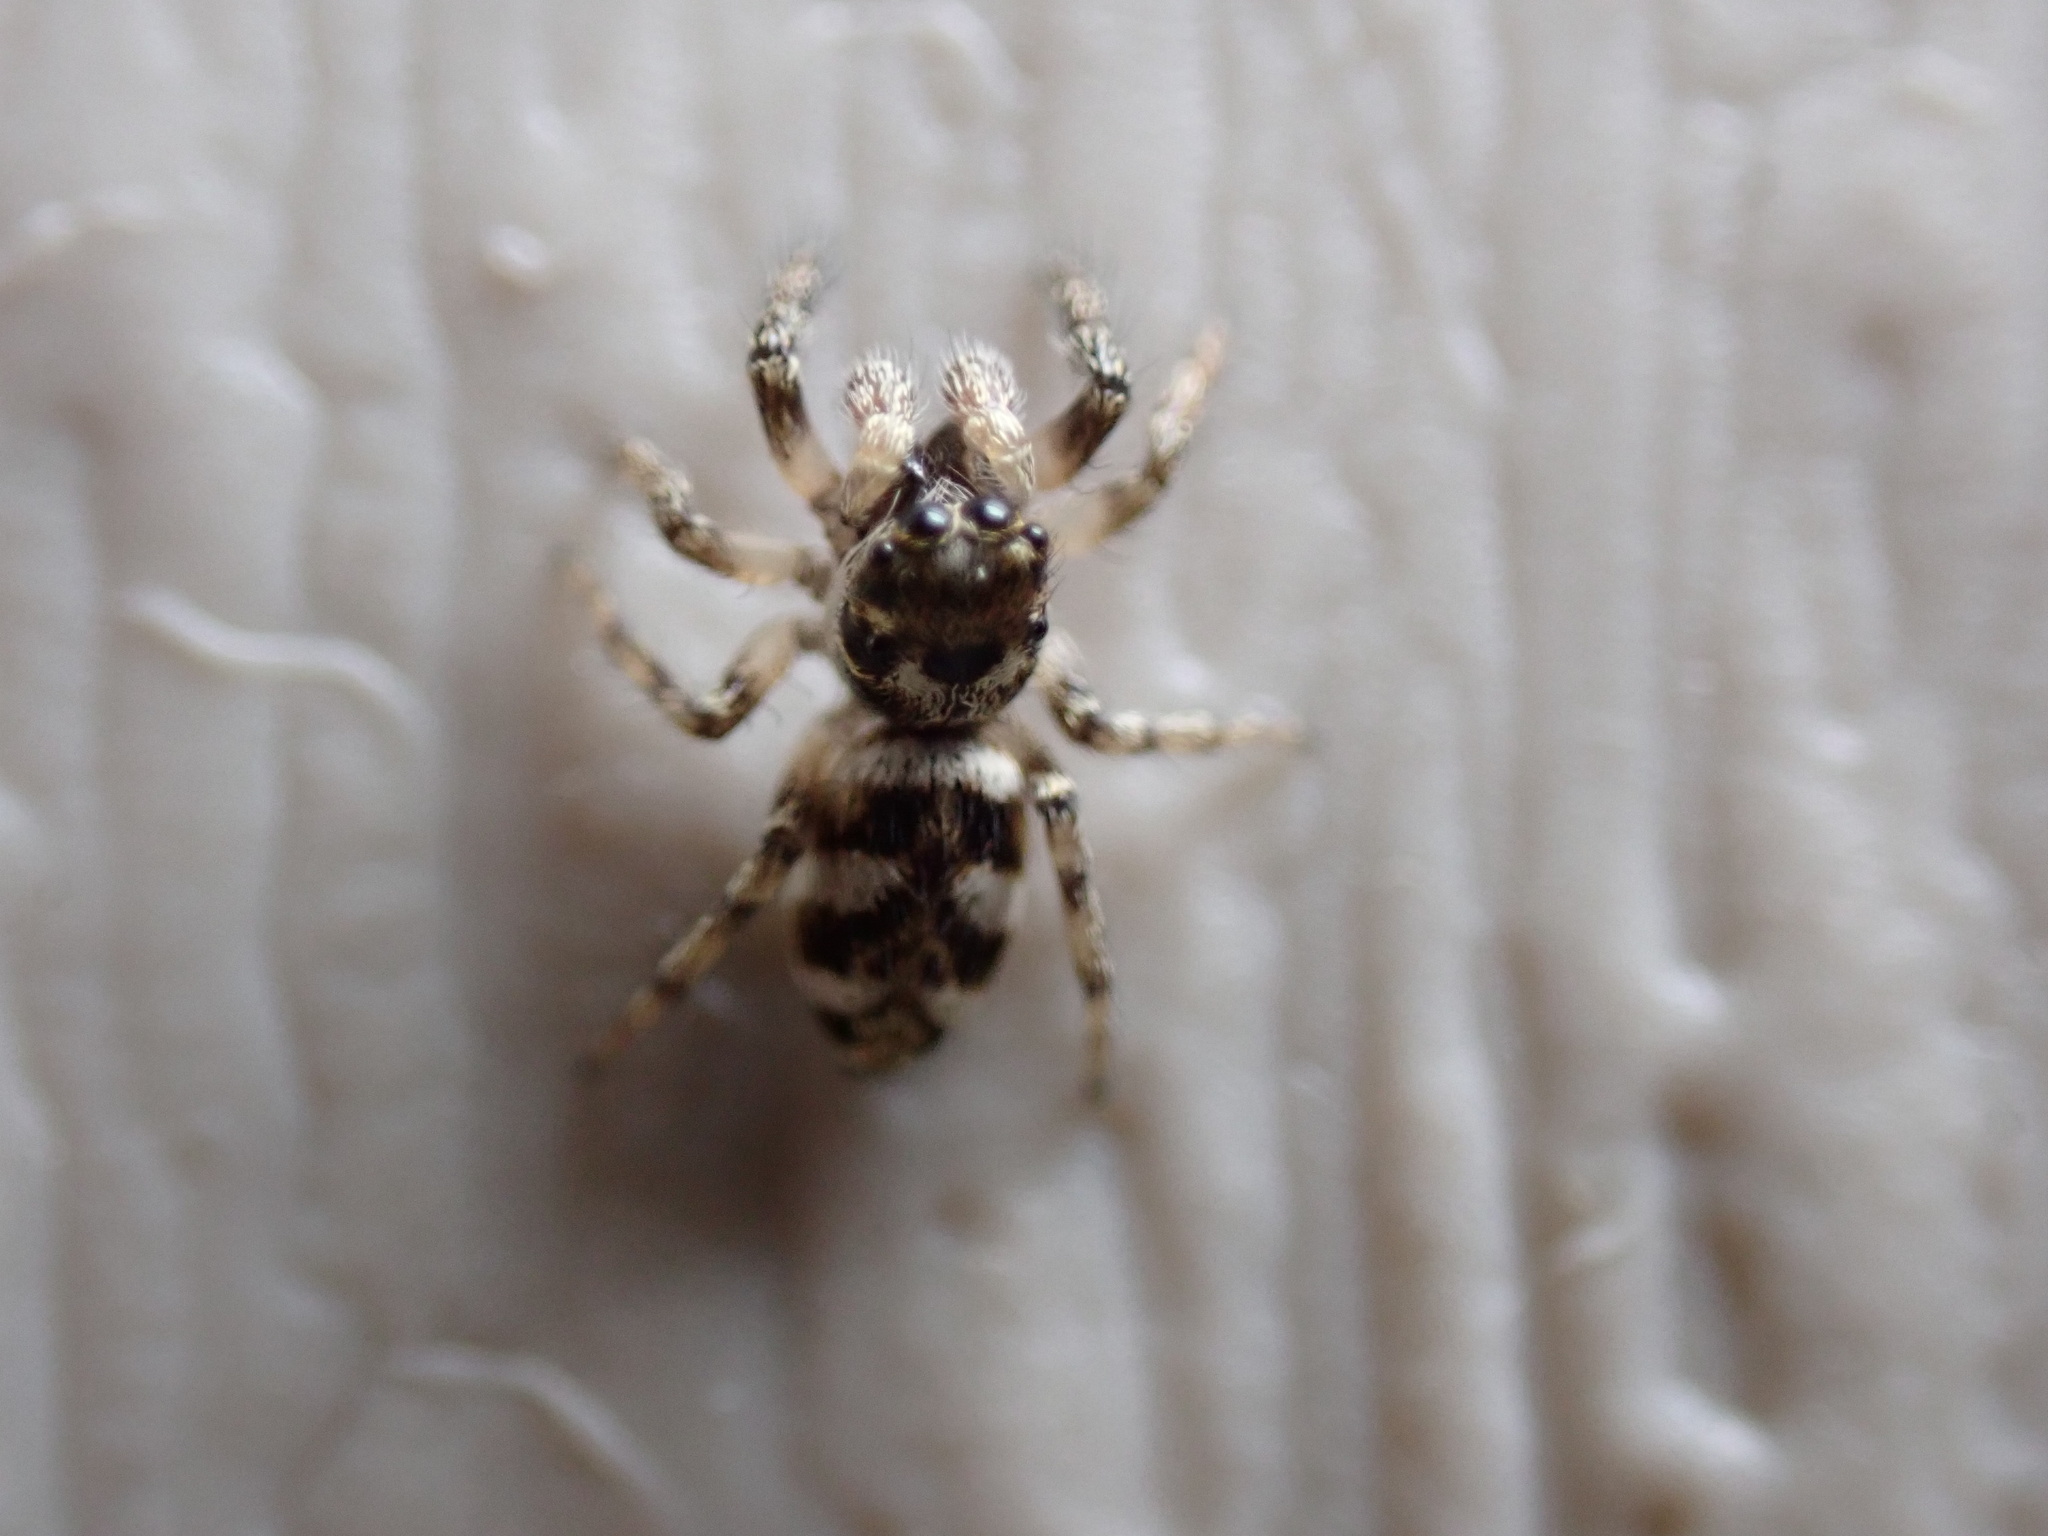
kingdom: Animalia
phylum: Arthropoda
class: Arachnida
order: Araneae
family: Salticidae
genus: Salticus
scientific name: Salticus scenicus
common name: Zebra jumper
